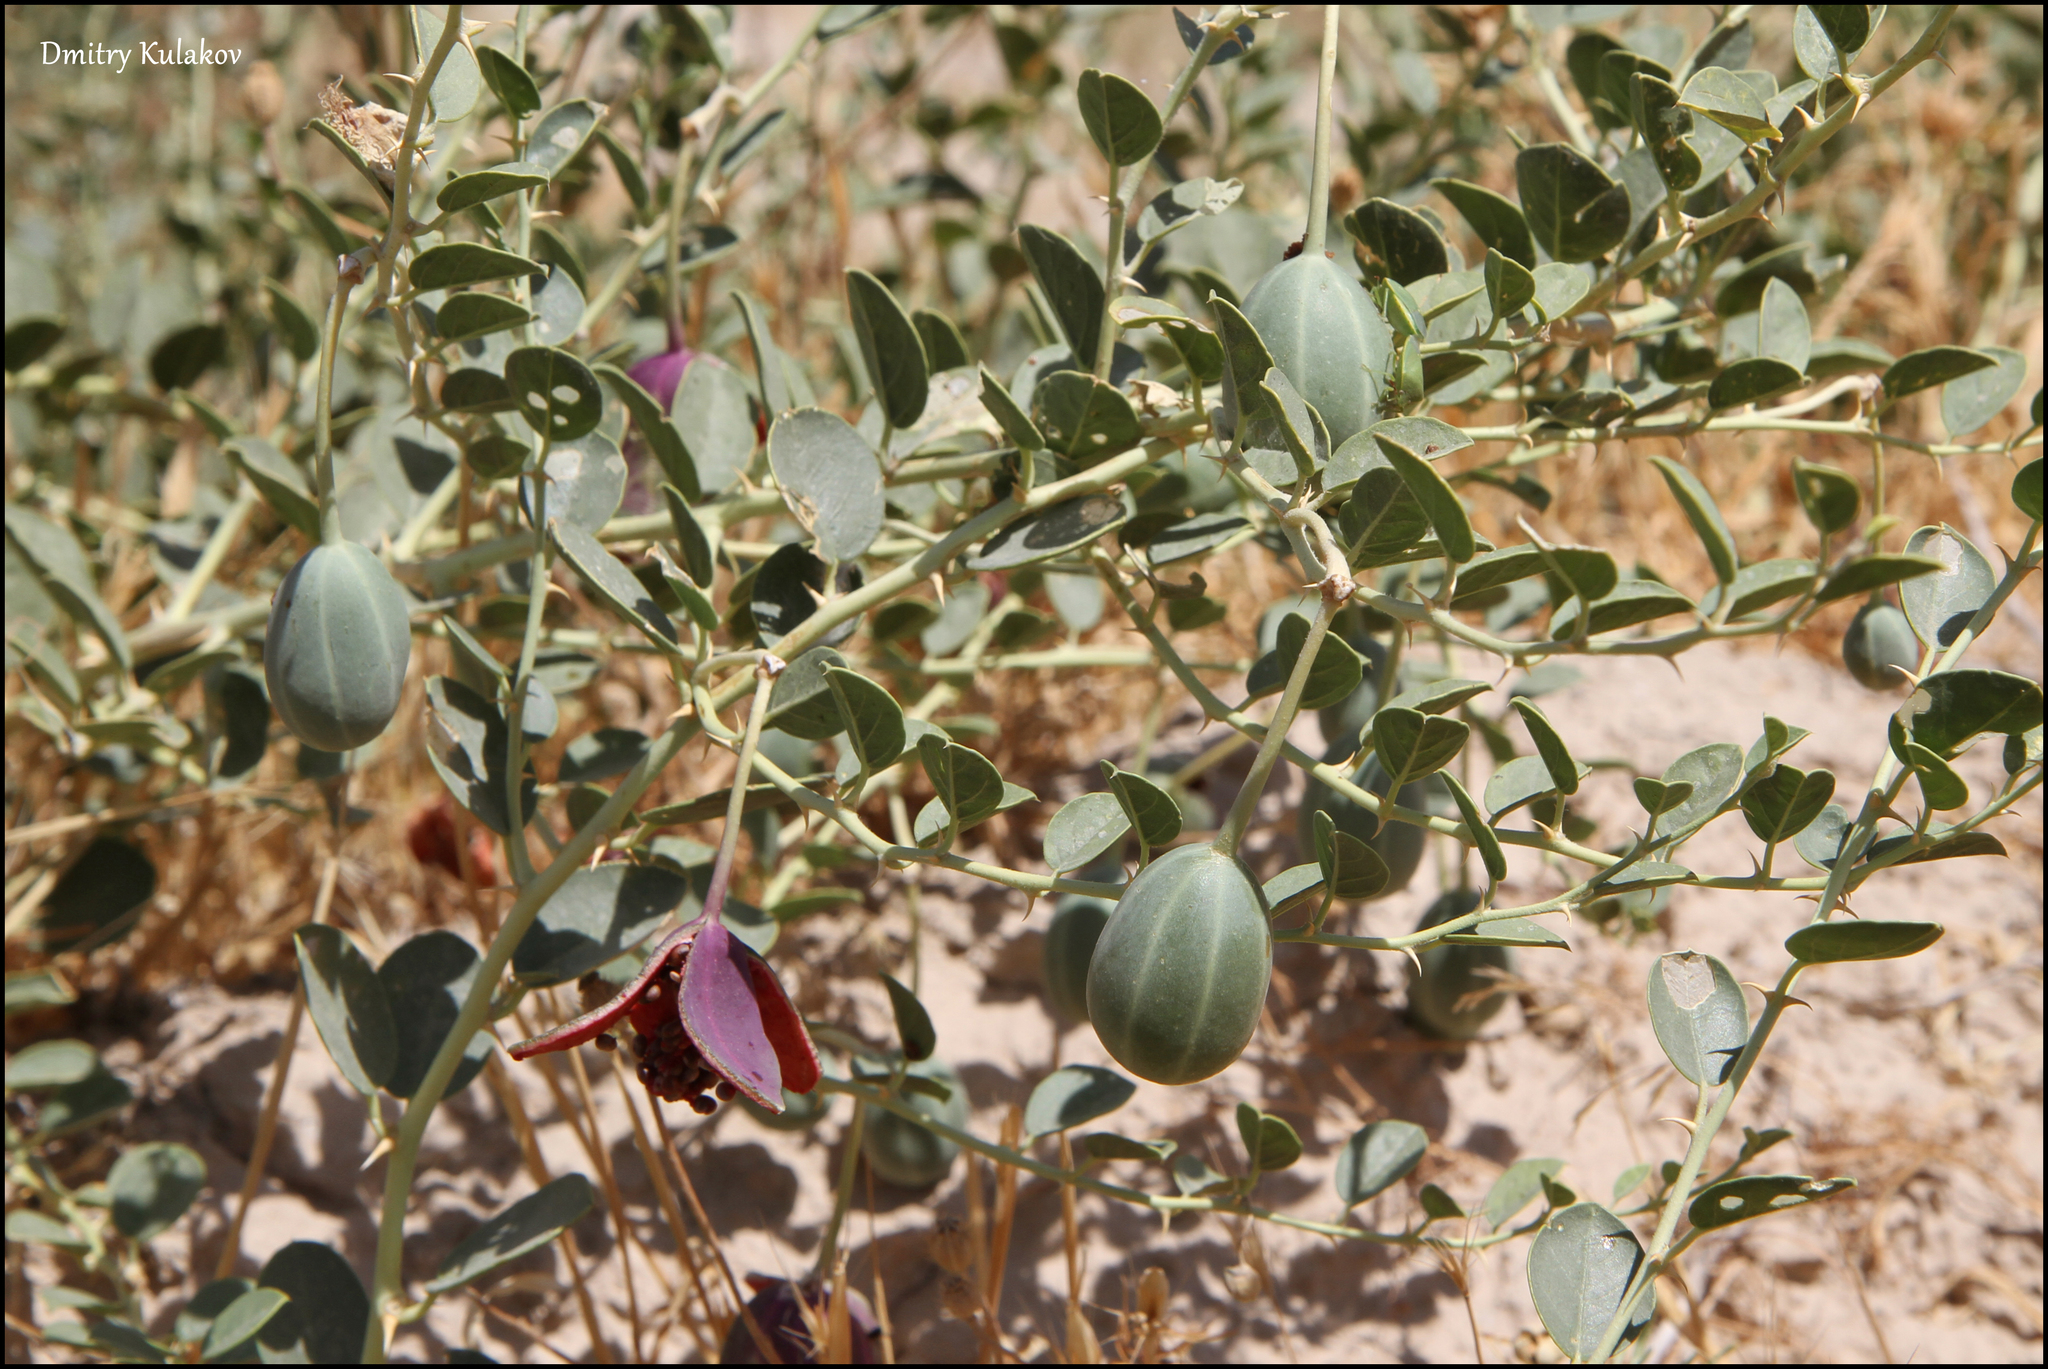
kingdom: Plantae
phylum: Tracheophyta
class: Magnoliopsida
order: Brassicales
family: Capparaceae
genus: Capparis
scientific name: Capparis spinosa
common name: Caper
